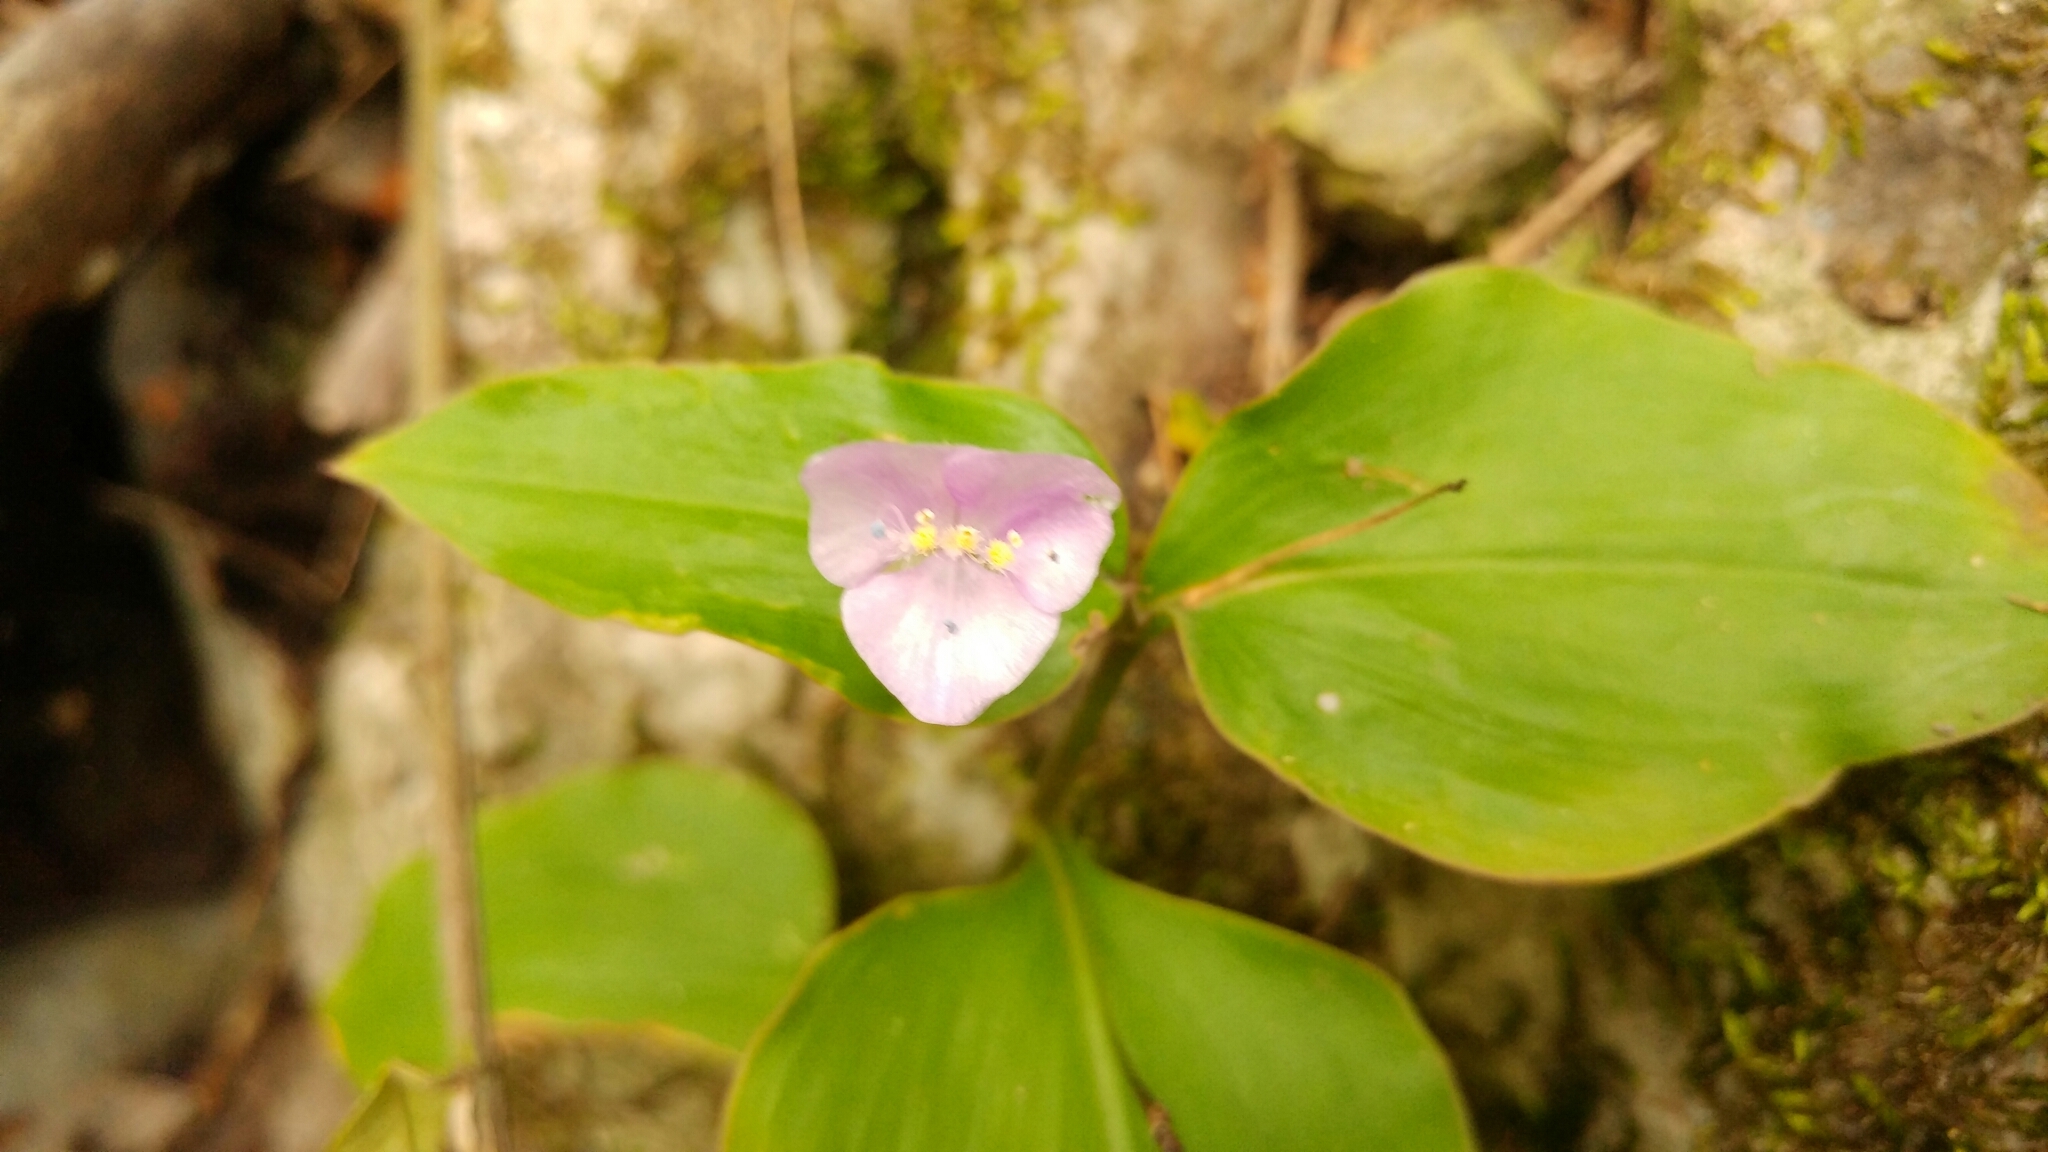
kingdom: Plantae
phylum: Tracheophyta
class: Liliopsida
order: Commelinales
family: Commelinaceae
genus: Tinantia
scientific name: Tinantia pringlei
